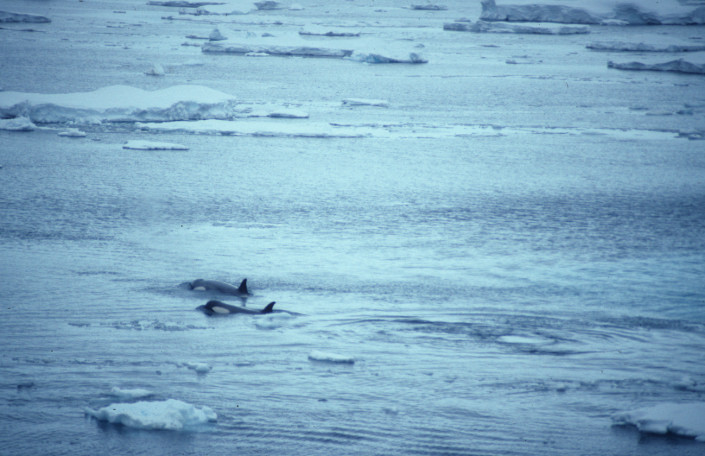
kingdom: Animalia
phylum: Chordata
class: Mammalia
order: Cetacea
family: Delphinidae
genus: Orcinus
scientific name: Orcinus orca
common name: Killer whale
